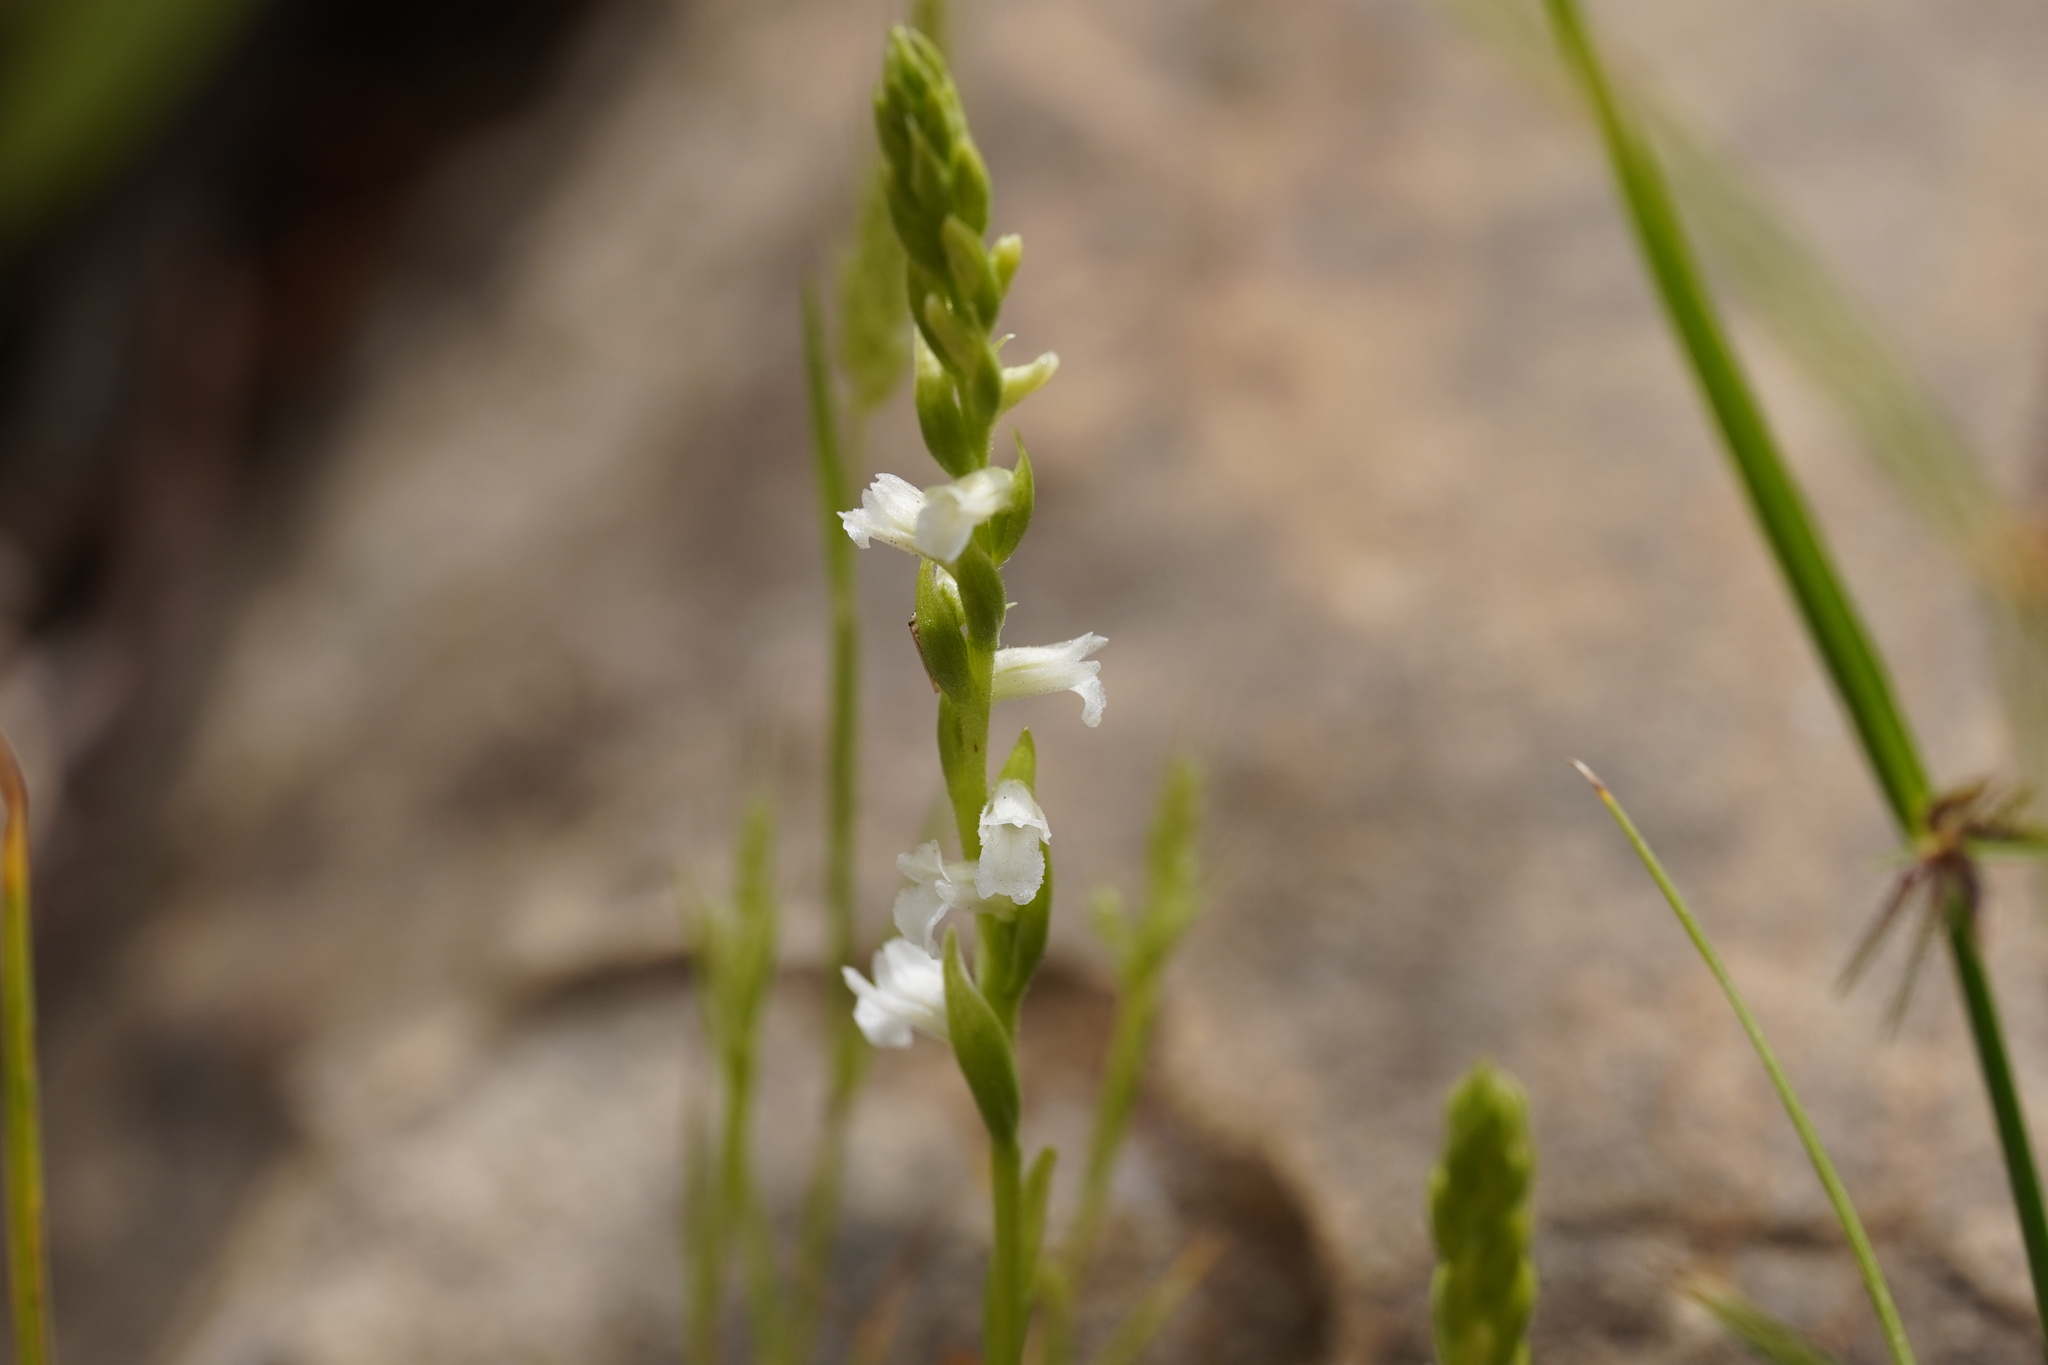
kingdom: Plantae
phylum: Tracheophyta
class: Liliopsida
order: Asparagales
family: Orchidaceae
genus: Spiranthes
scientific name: Spiranthes aestivalis
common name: Summer lady's-tresses
